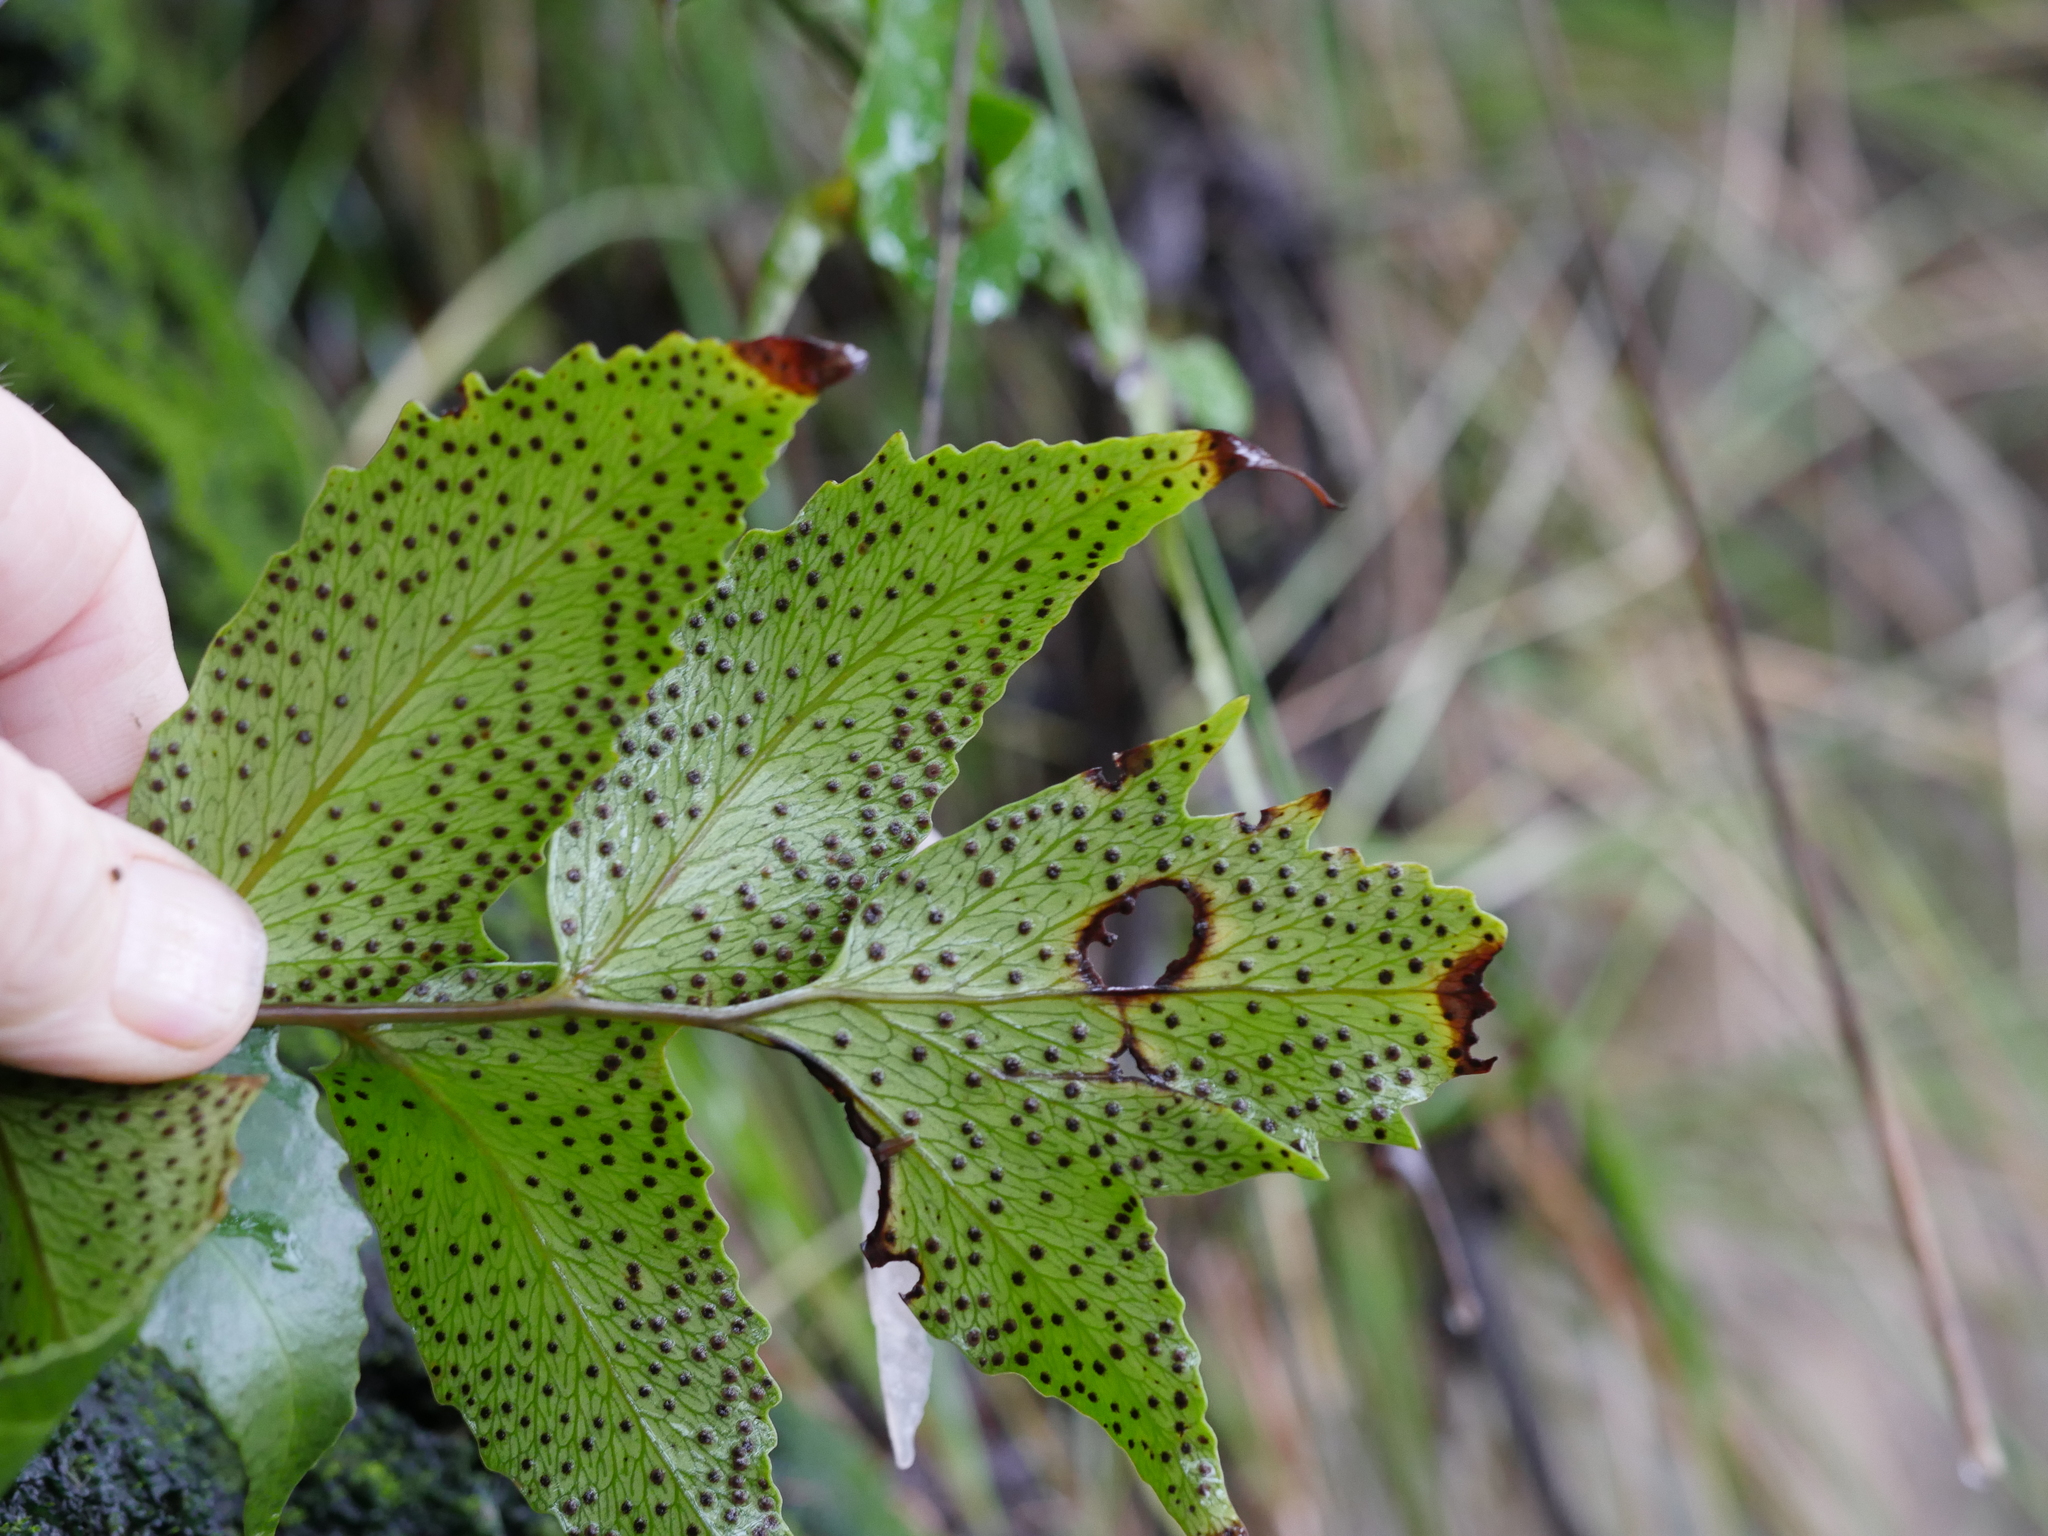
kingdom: Plantae
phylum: Tracheophyta
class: Polypodiopsida
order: Polypodiales
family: Dryopteridaceae
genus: Cyrtomium
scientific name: Cyrtomium falcatum
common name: House holly-fern
